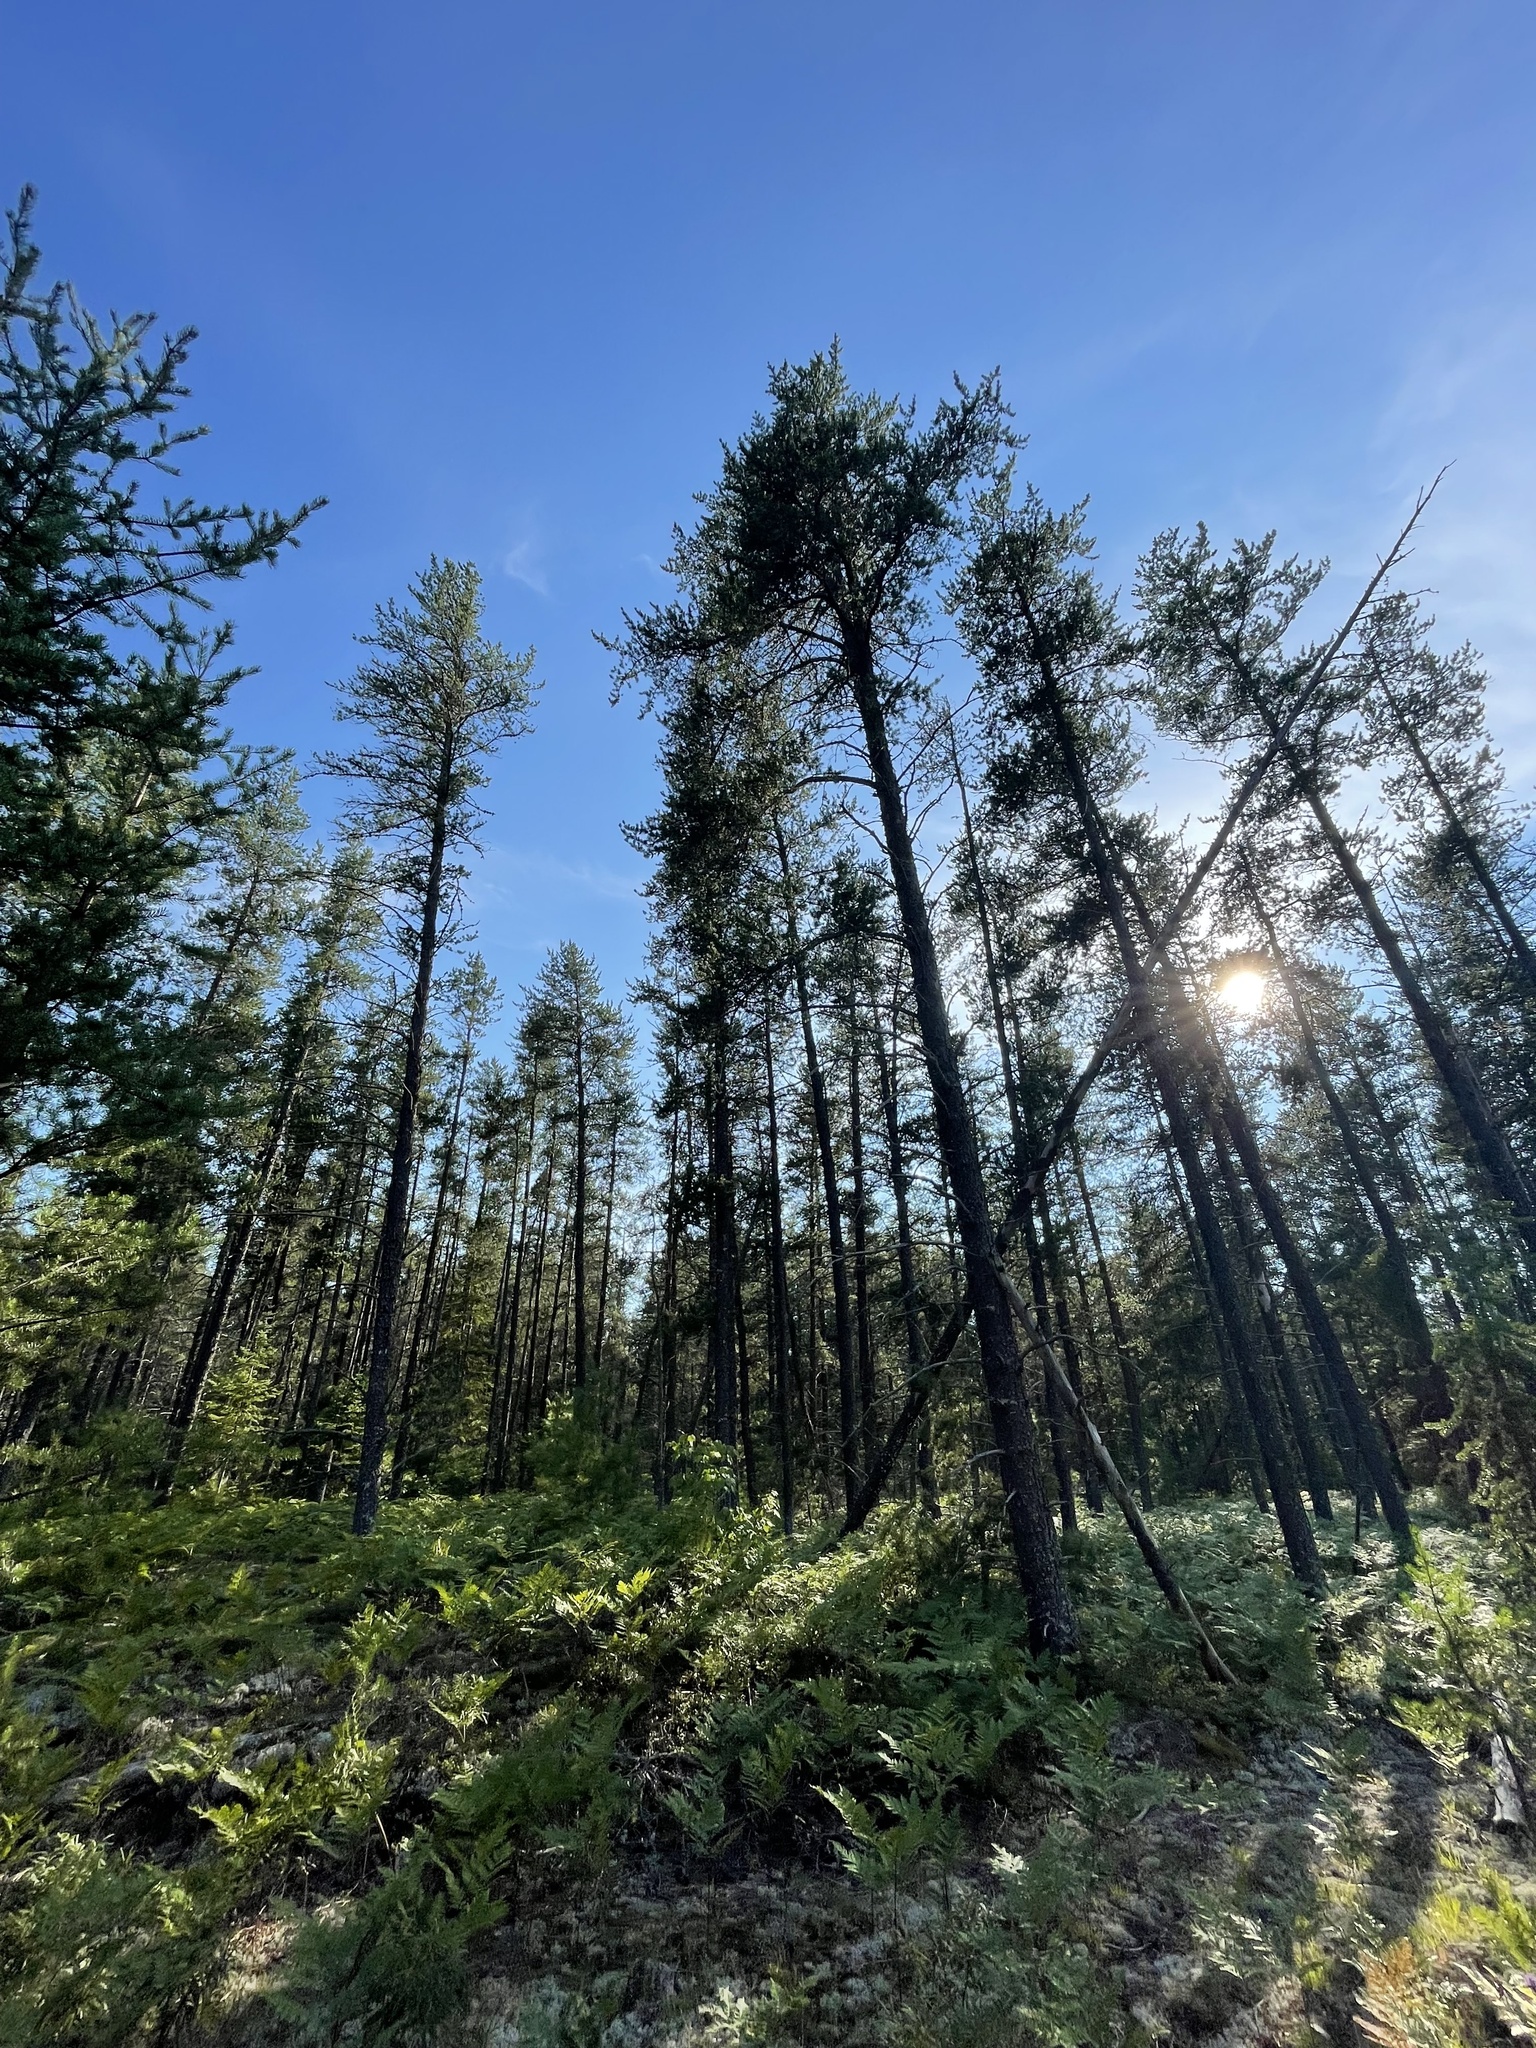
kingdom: Plantae
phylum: Tracheophyta
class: Pinopsida
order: Pinales
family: Pinaceae
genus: Pinus
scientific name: Pinus banksiana
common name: Jack pine
